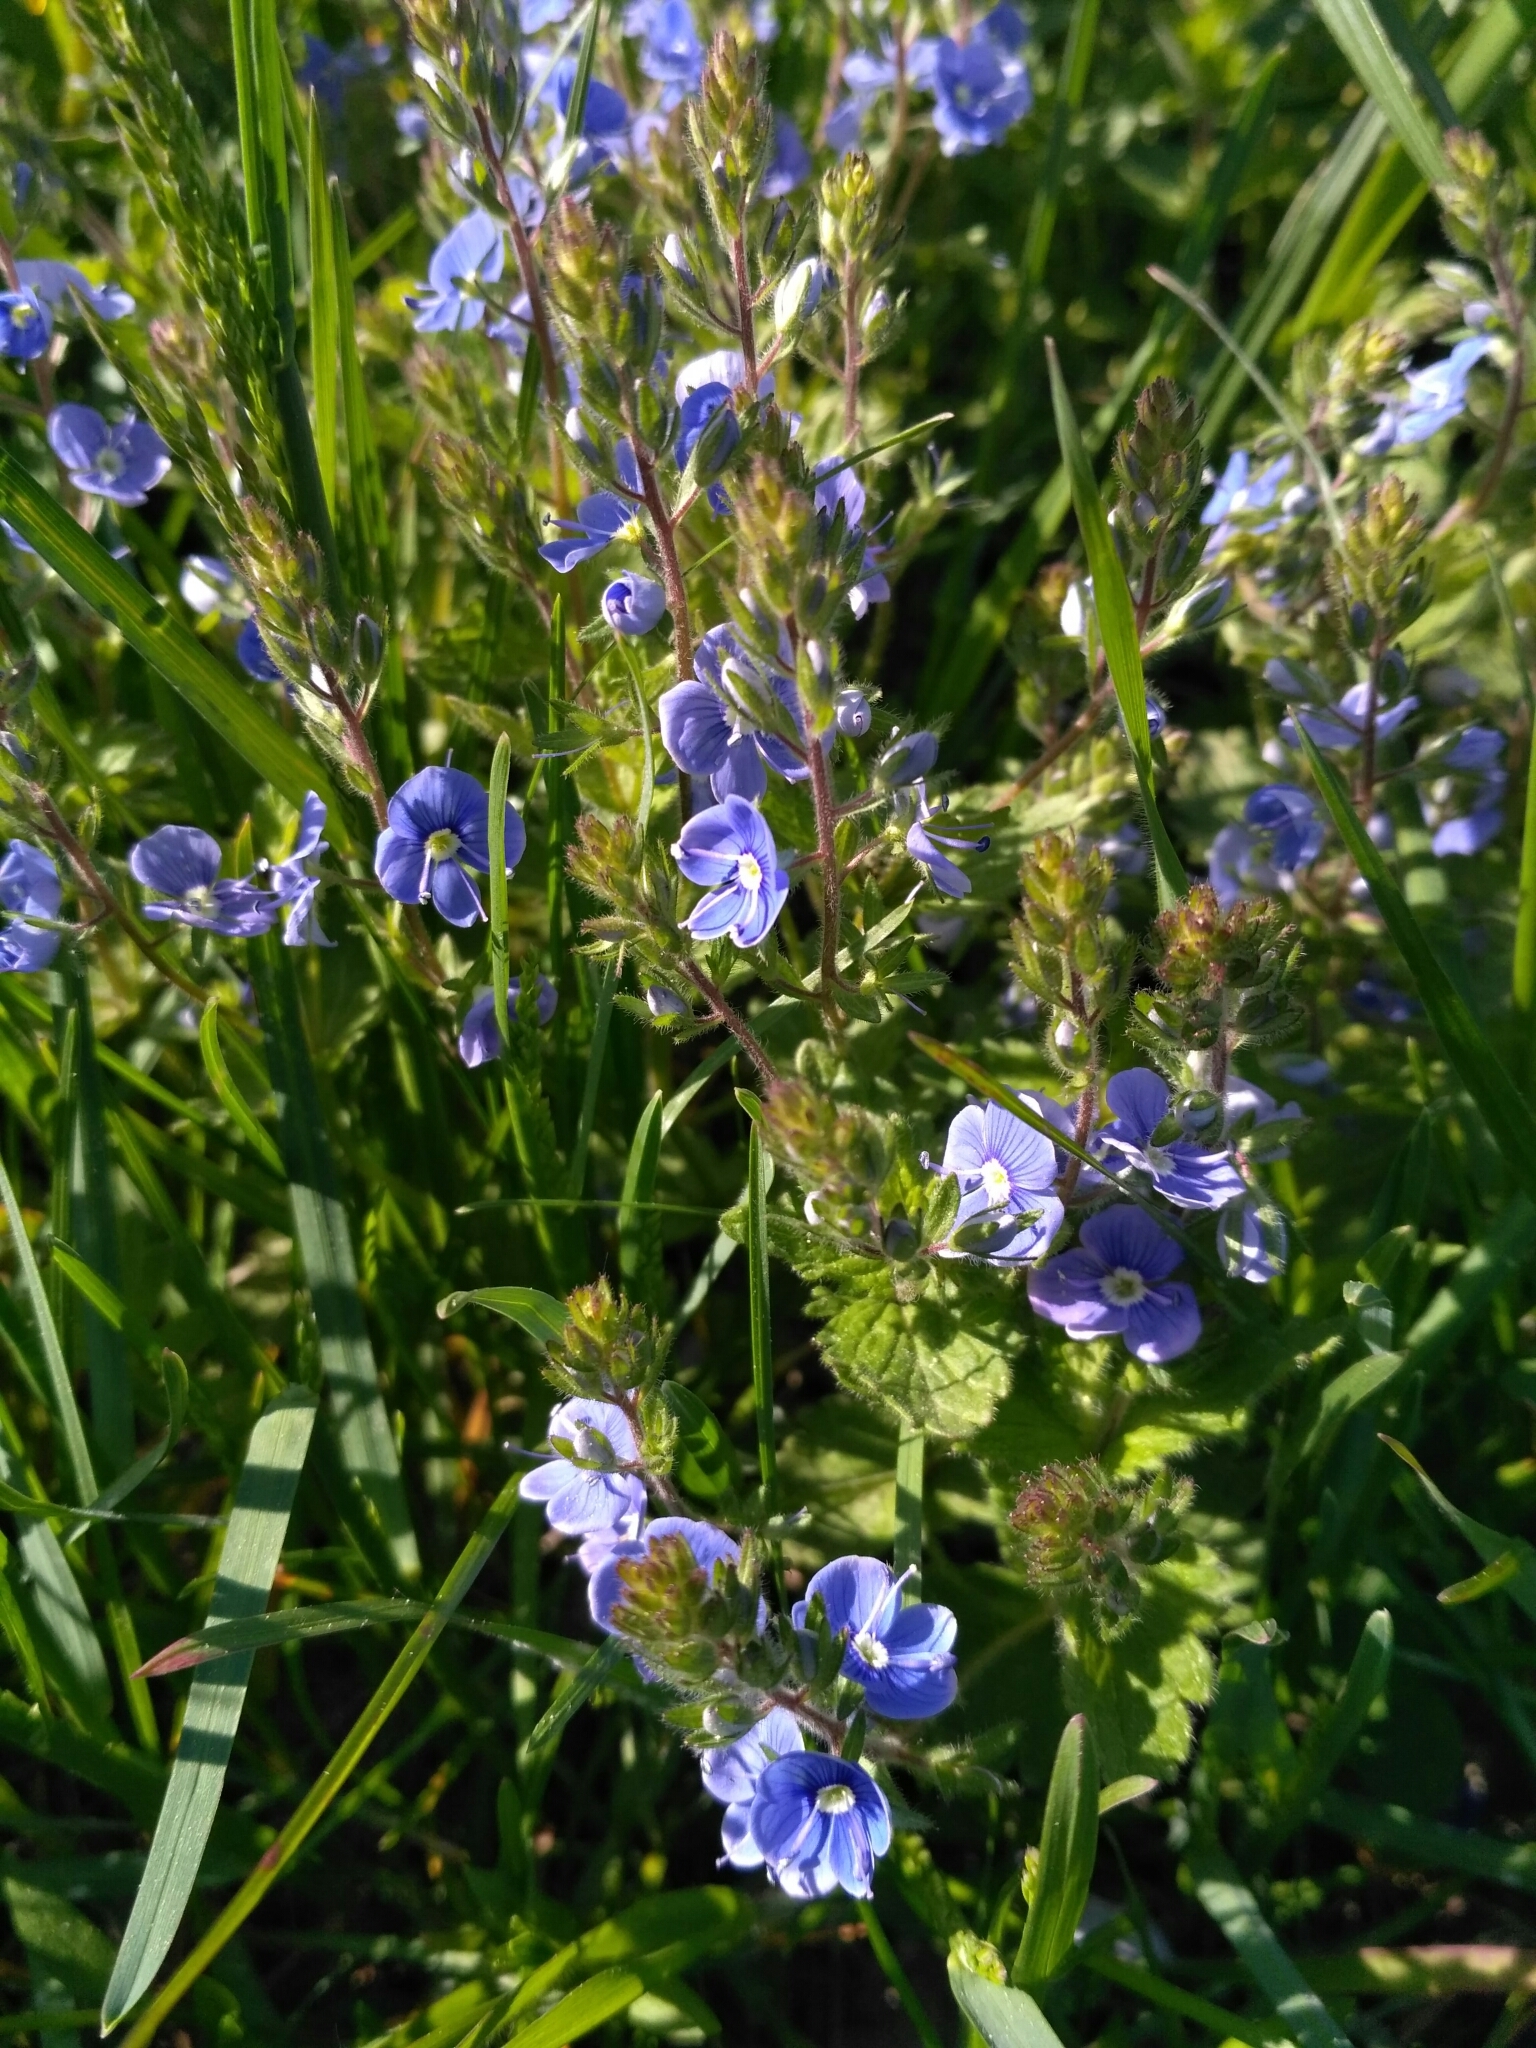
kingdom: Plantae
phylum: Tracheophyta
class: Magnoliopsida
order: Lamiales
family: Plantaginaceae
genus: Veronica
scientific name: Veronica chamaedrys
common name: Germander speedwell
